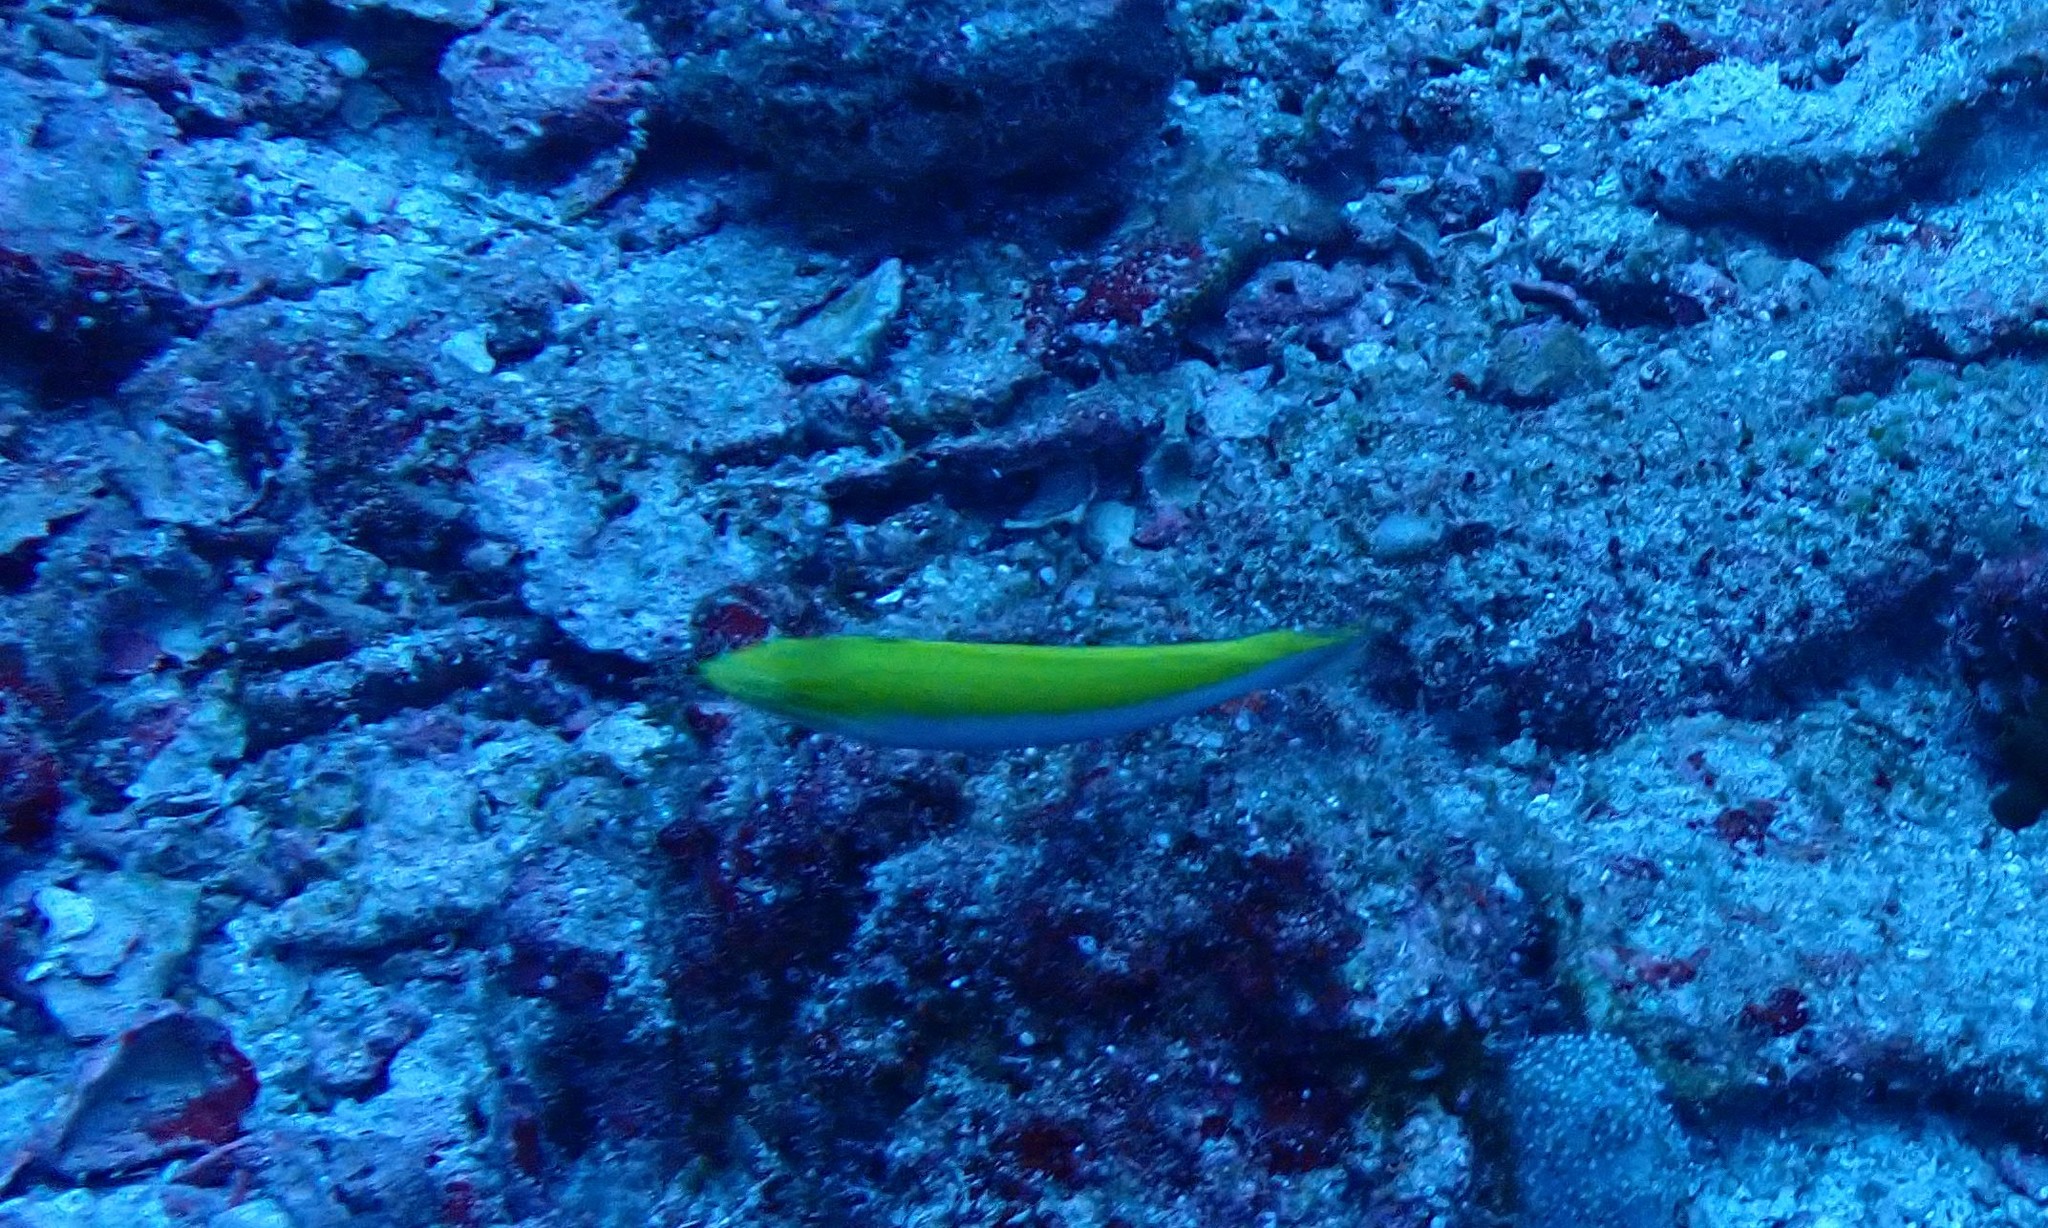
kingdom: Animalia
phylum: Chordata
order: Perciformes
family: Labridae
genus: Halichoeres
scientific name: Halichoeres leucoxanthus
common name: Canarytop wrasse
